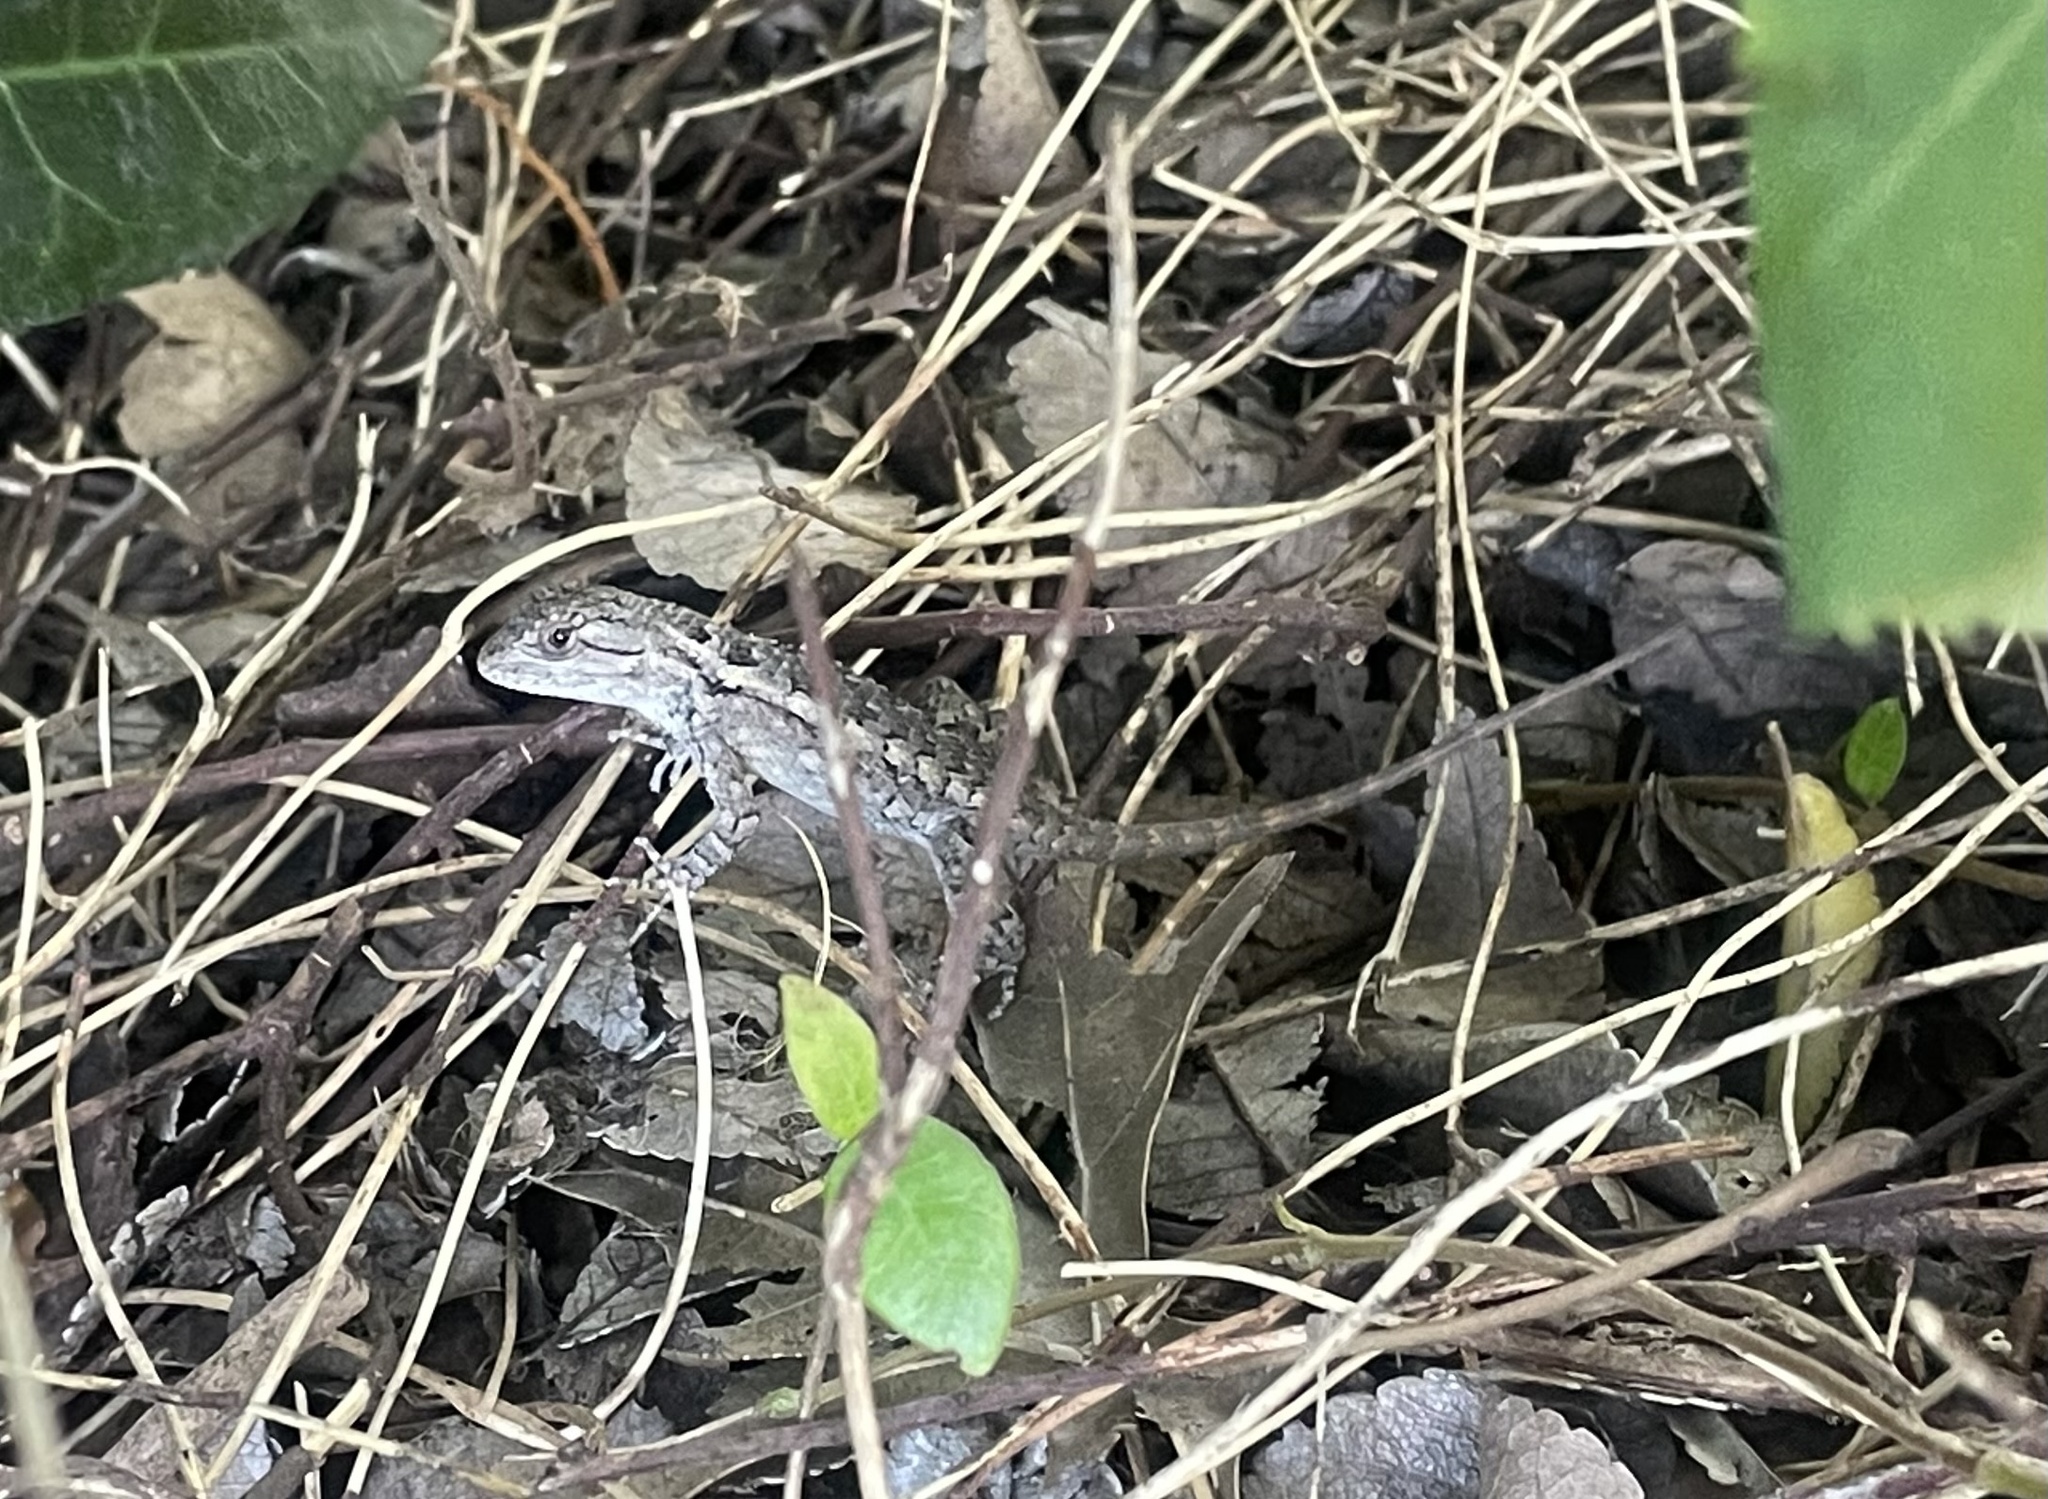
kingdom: Animalia
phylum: Chordata
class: Squamata
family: Phrynosomatidae
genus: Sceloporus
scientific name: Sceloporus olivaceus
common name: Texas spiny lizard
